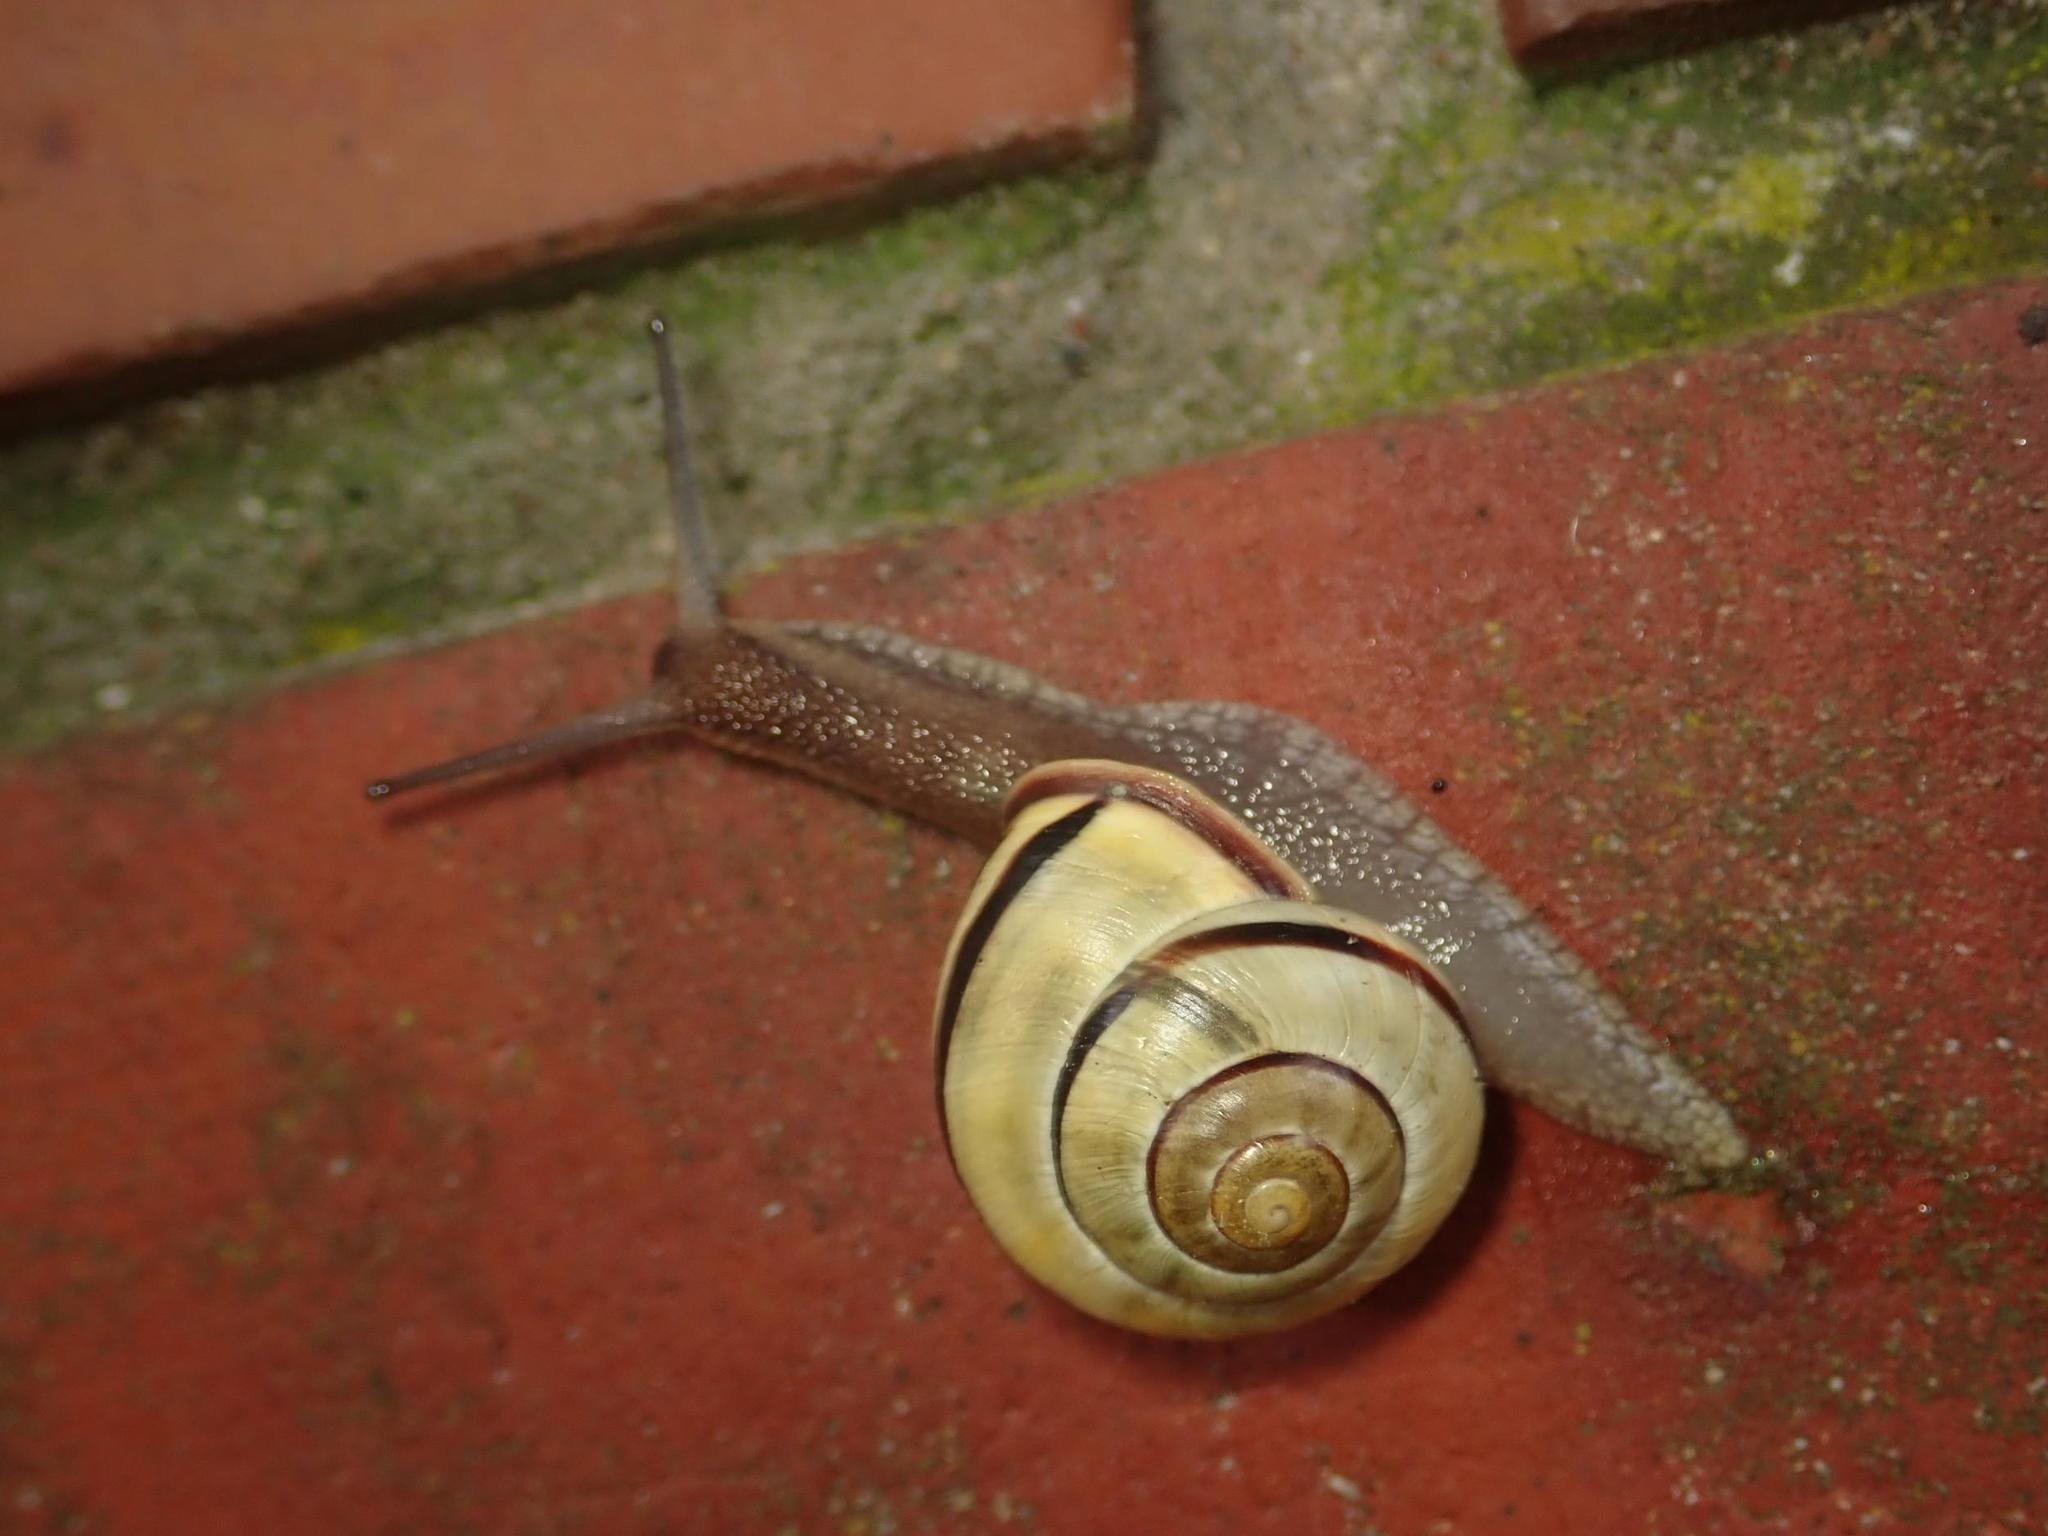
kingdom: Animalia
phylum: Mollusca
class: Gastropoda
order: Stylommatophora
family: Helicidae
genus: Cepaea
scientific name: Cepaea nemoralis
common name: Grovesnail
